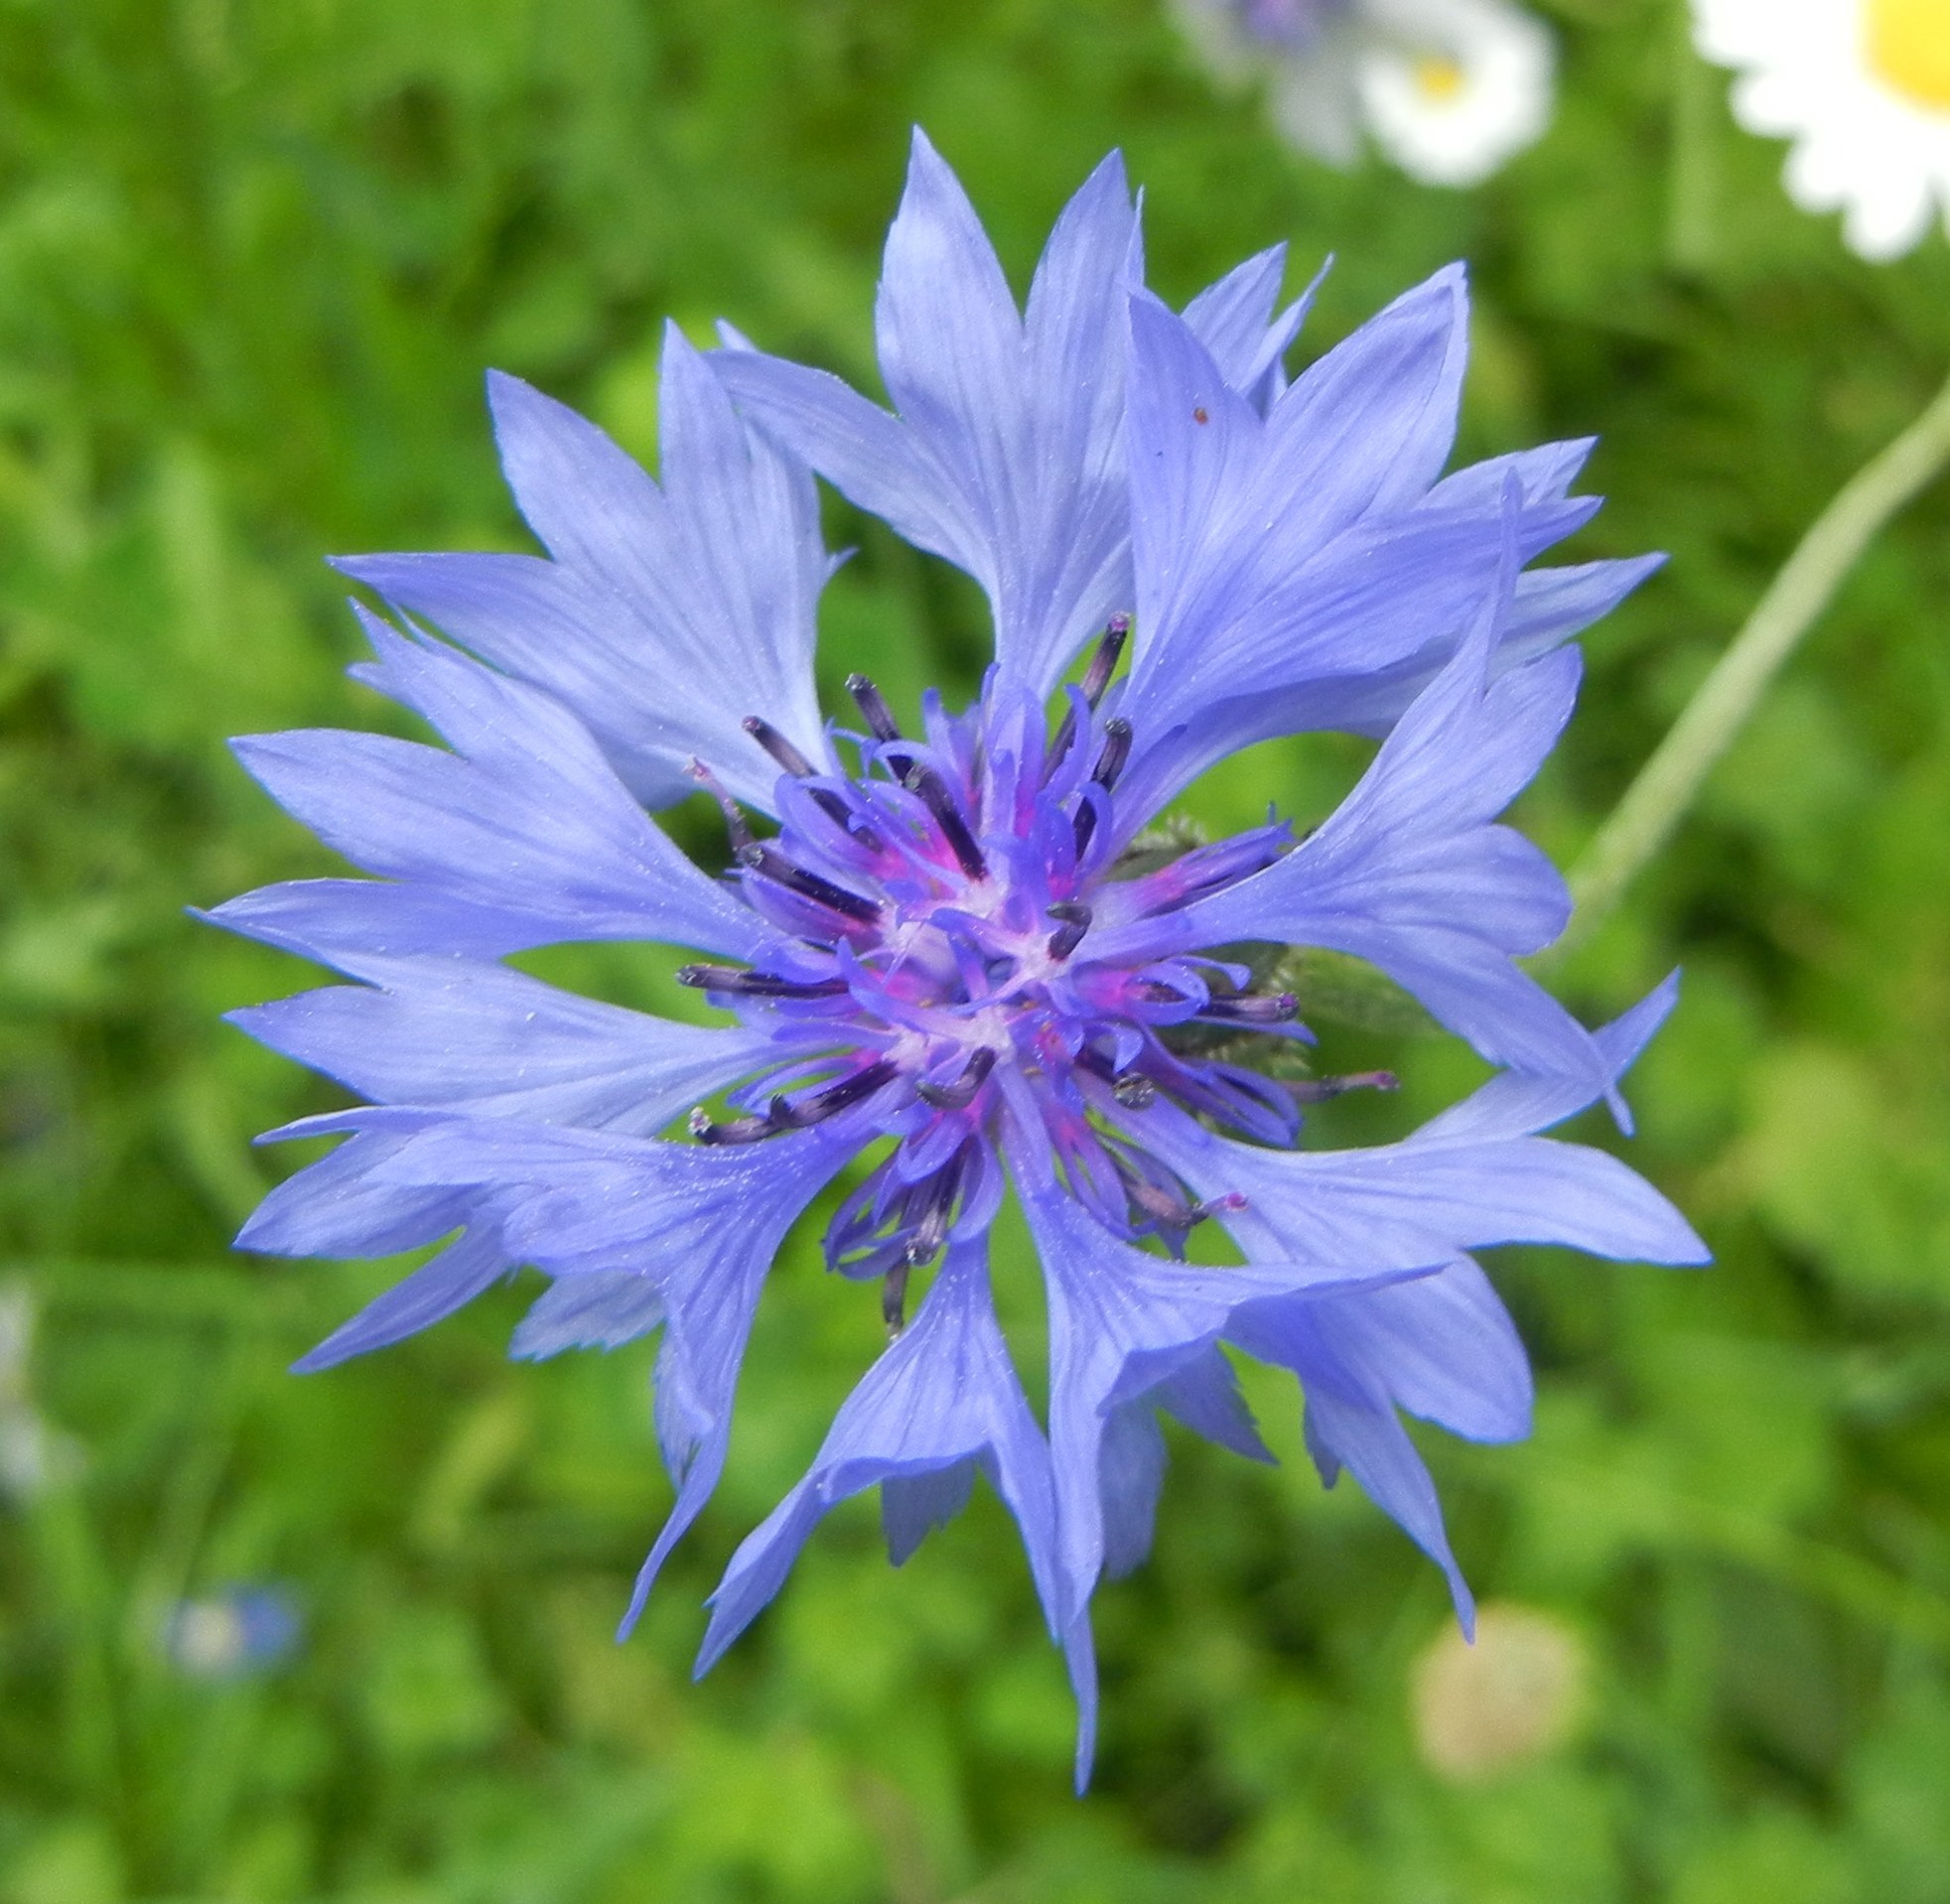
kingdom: Plantae
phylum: Tracheophyta
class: Magnoliopsida
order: Asterales
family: Asteraceae
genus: Centaurea
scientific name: Centaurea cyanus
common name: Cornflower
